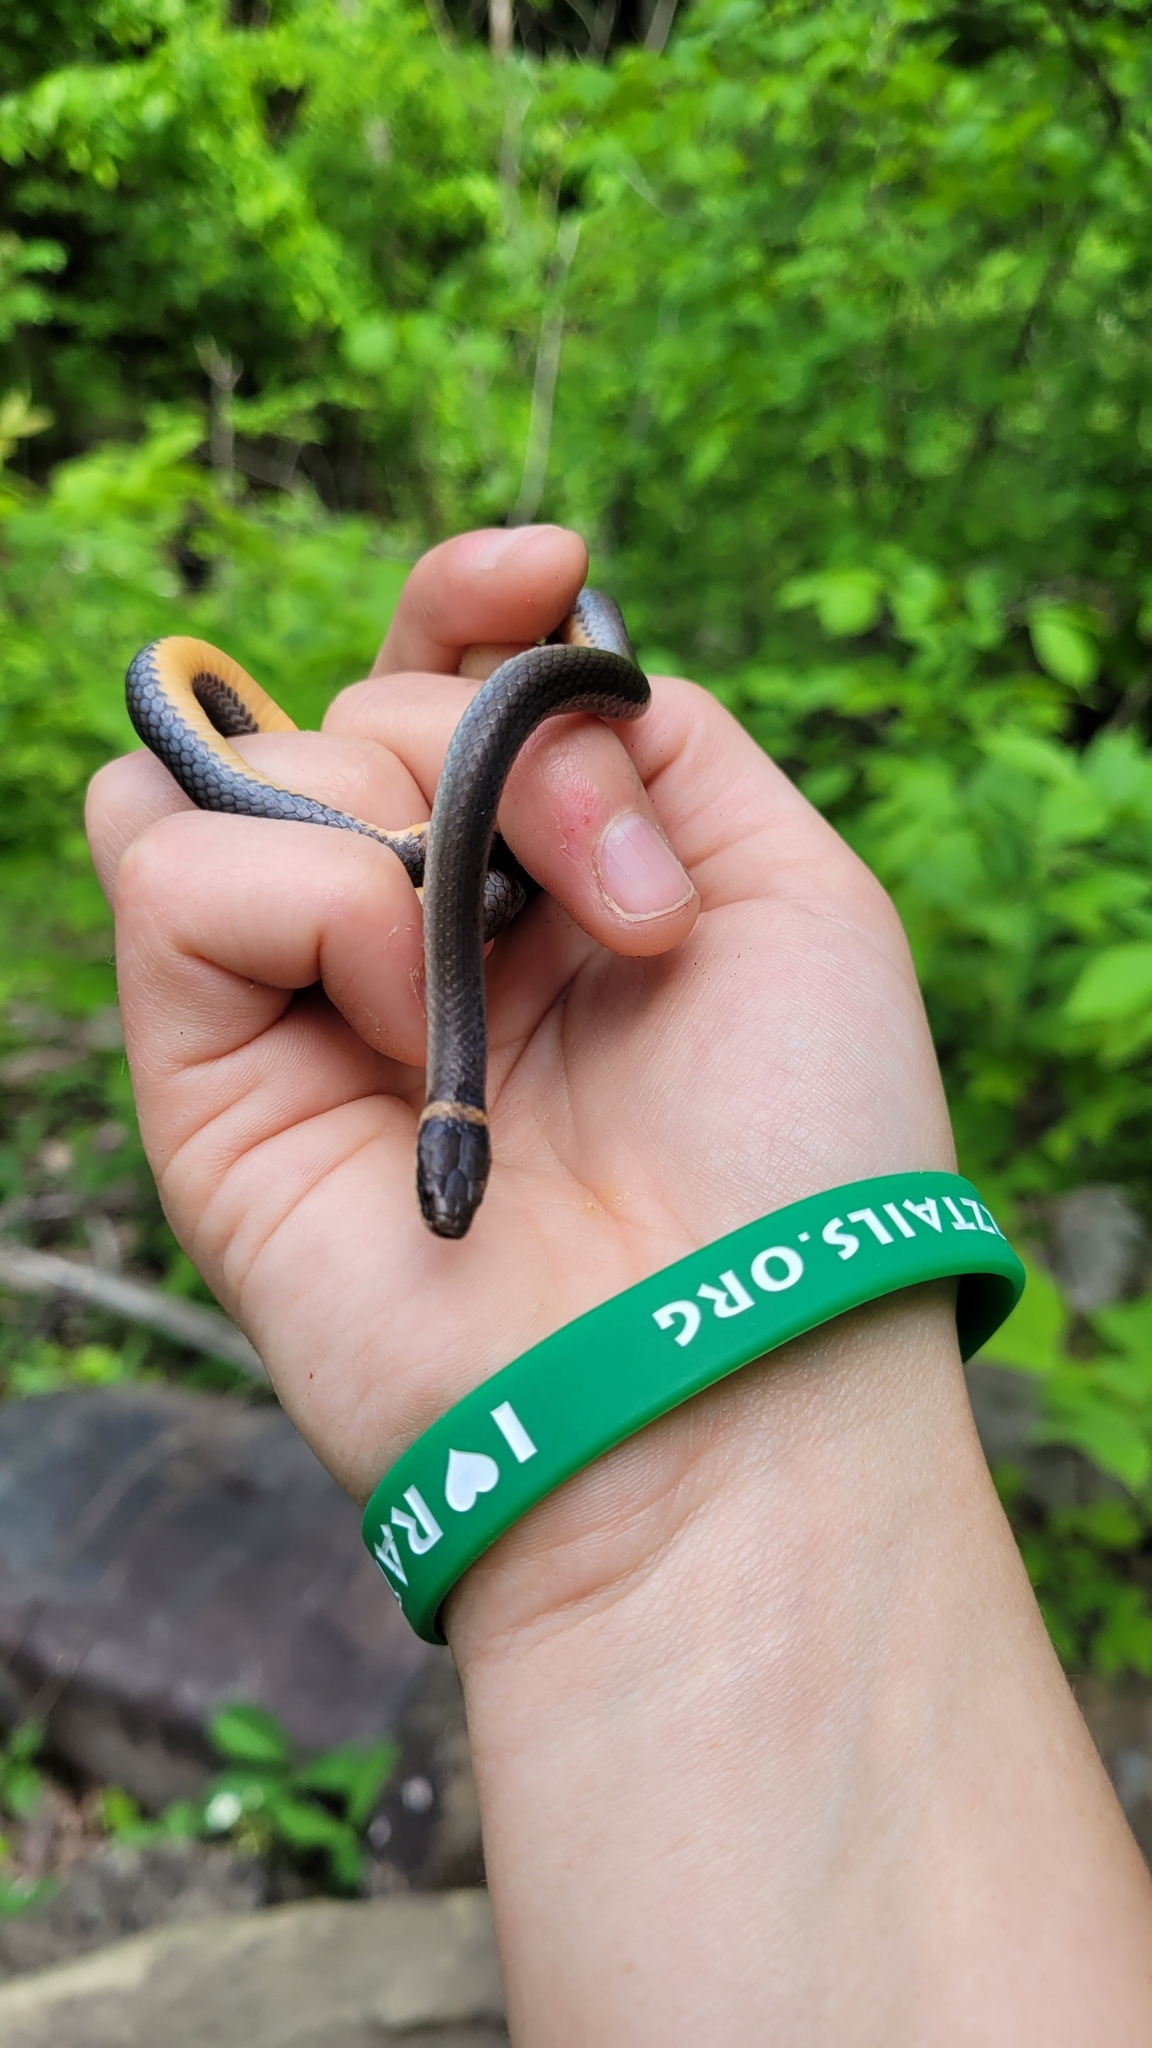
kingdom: Animalia
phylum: Chordata
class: Squamata
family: Colubridae
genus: Diadophis
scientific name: Diadophis punctatus
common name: Ringneck snake
